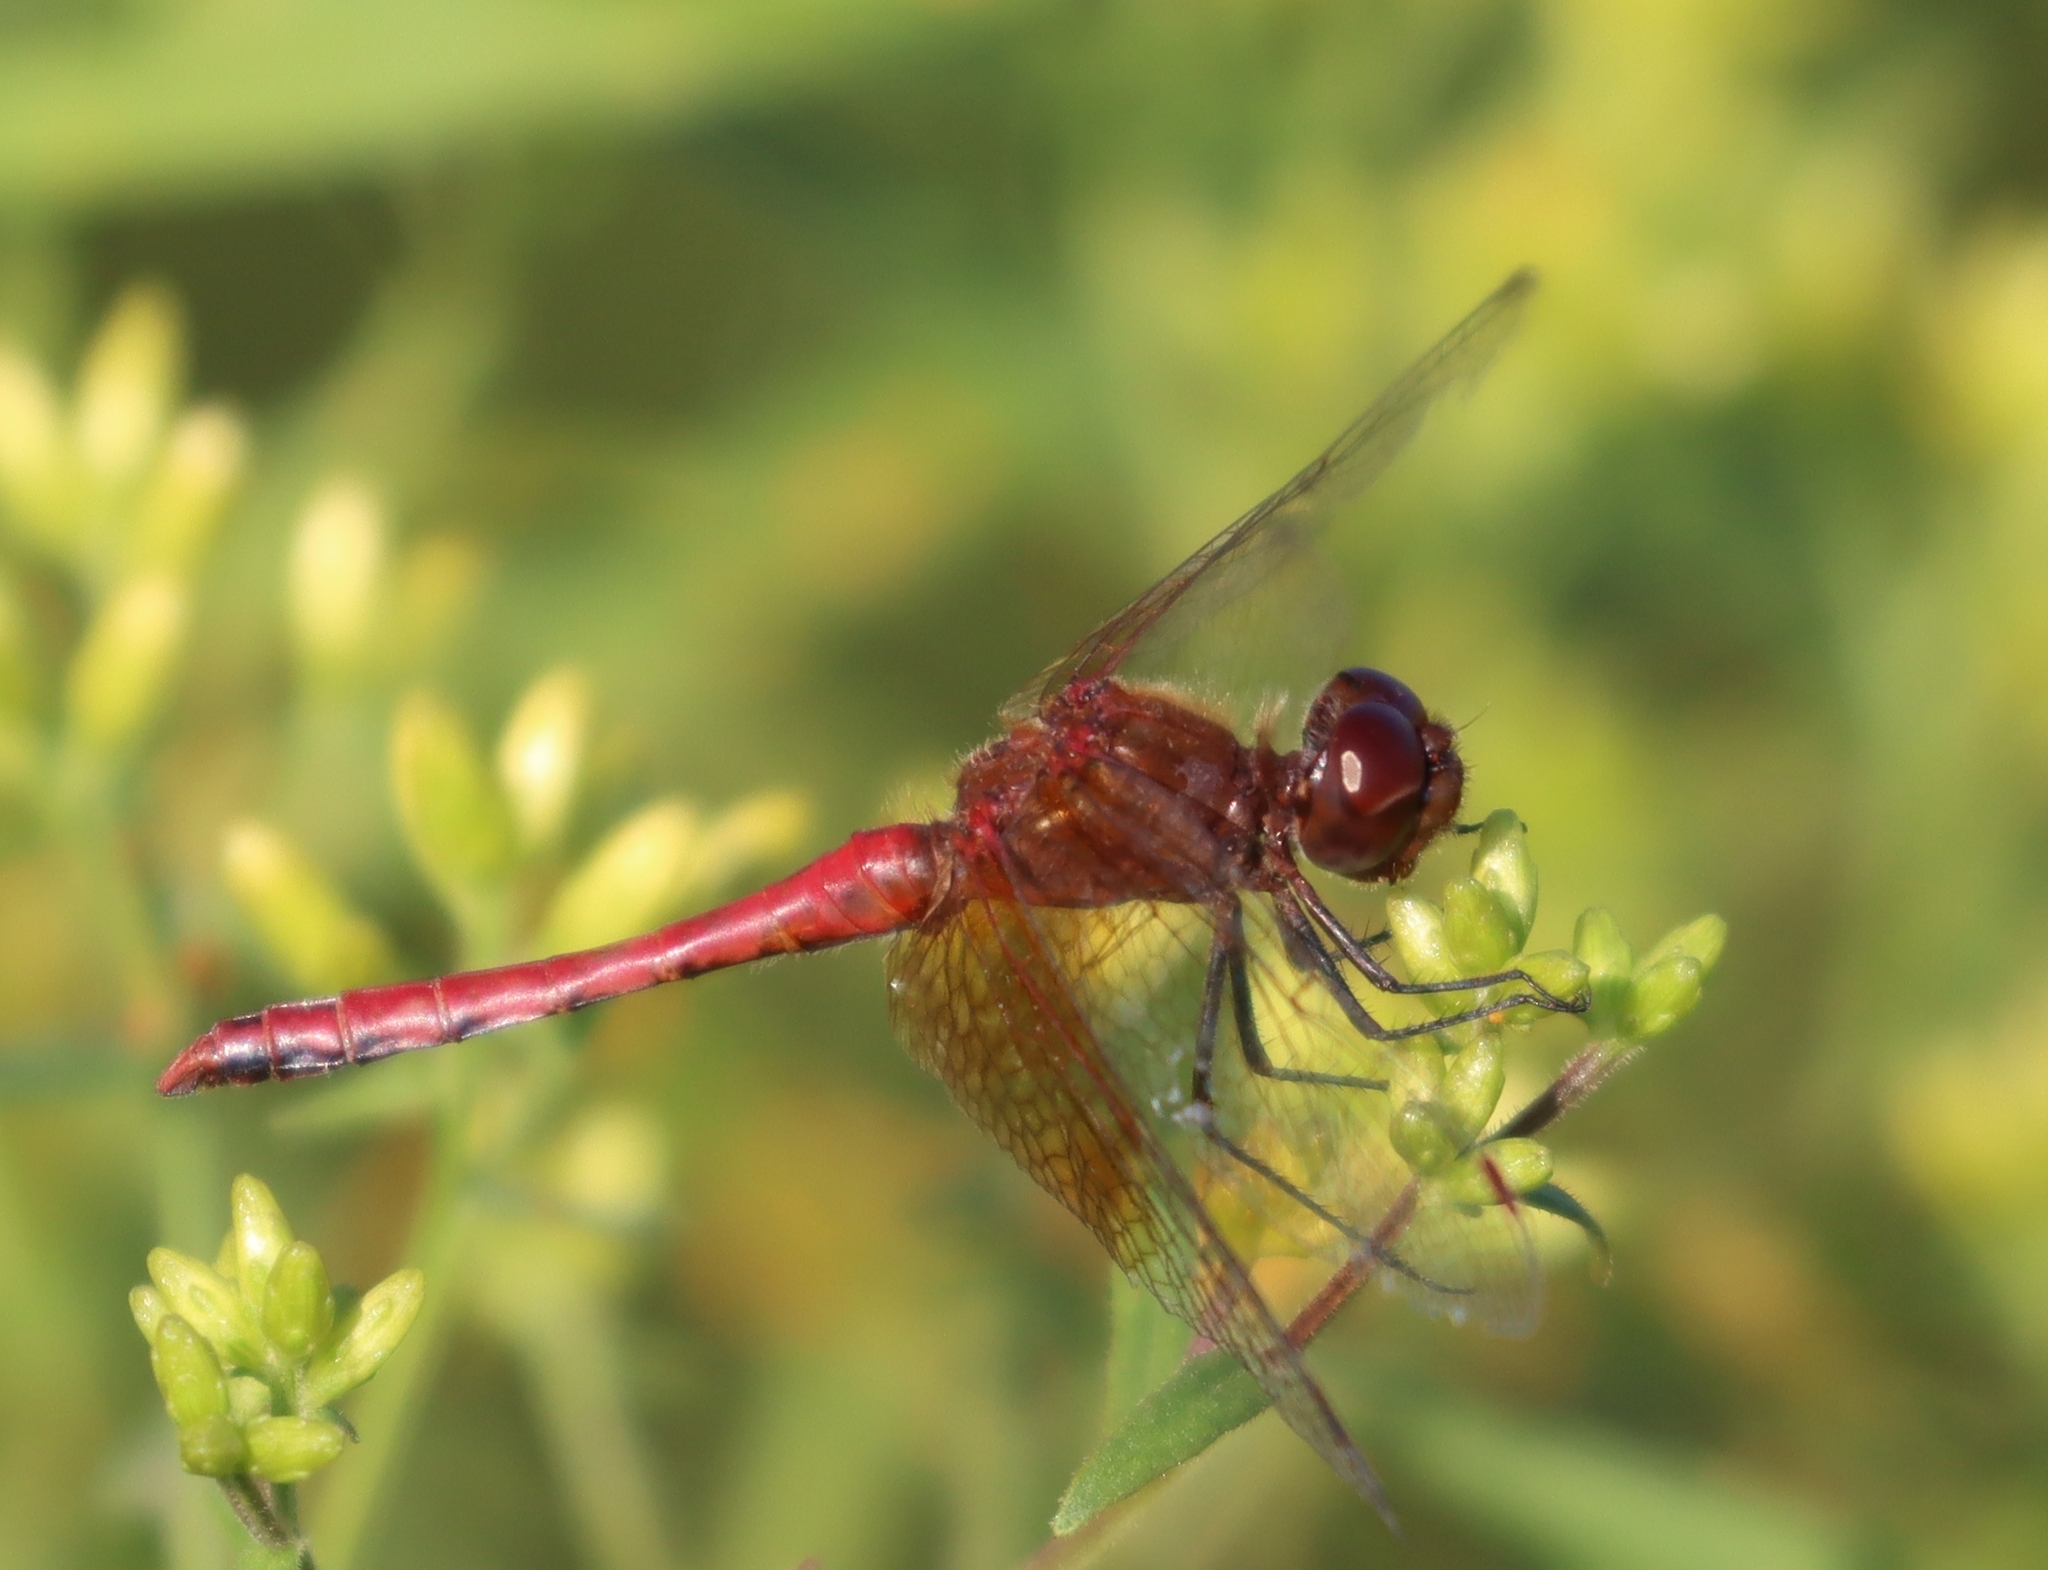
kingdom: Animalia
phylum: Arthropoda
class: Insecta
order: Odonata
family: Libellulidae
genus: Sympetrum
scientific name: Sympetrum semicinctum
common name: Band-winged meadowhawk
